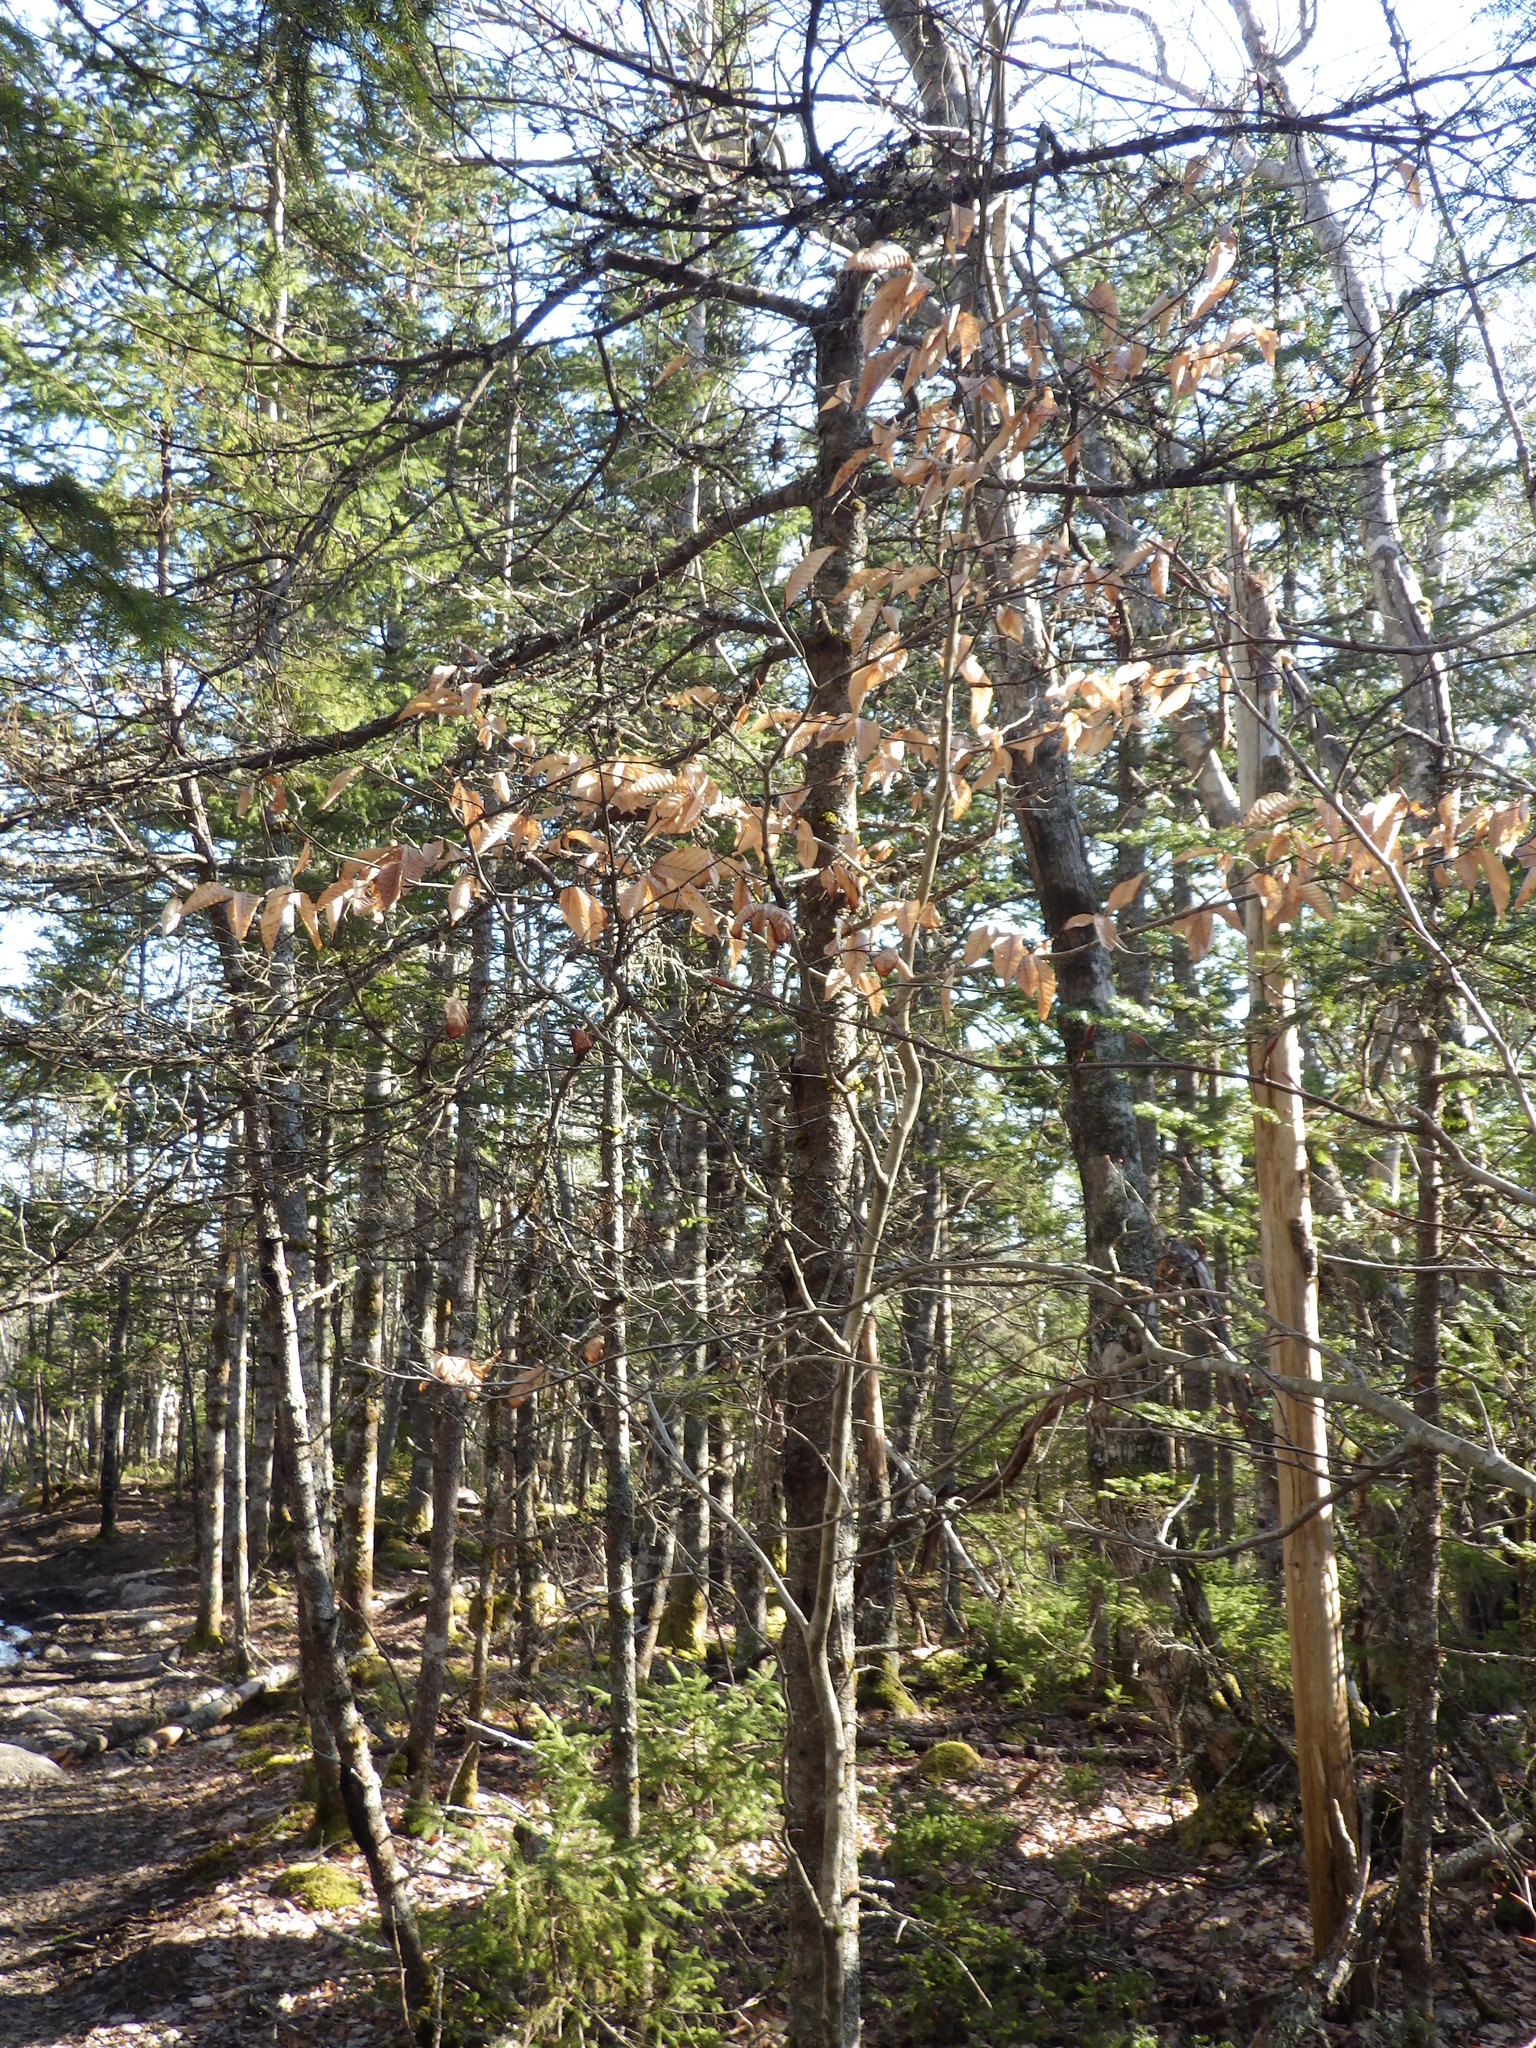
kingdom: Plantae
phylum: Tracheophyta
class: Magnoliopsida
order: Fagales
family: Fagaceae
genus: Fagus
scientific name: Fagus grandifolia
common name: American beech
